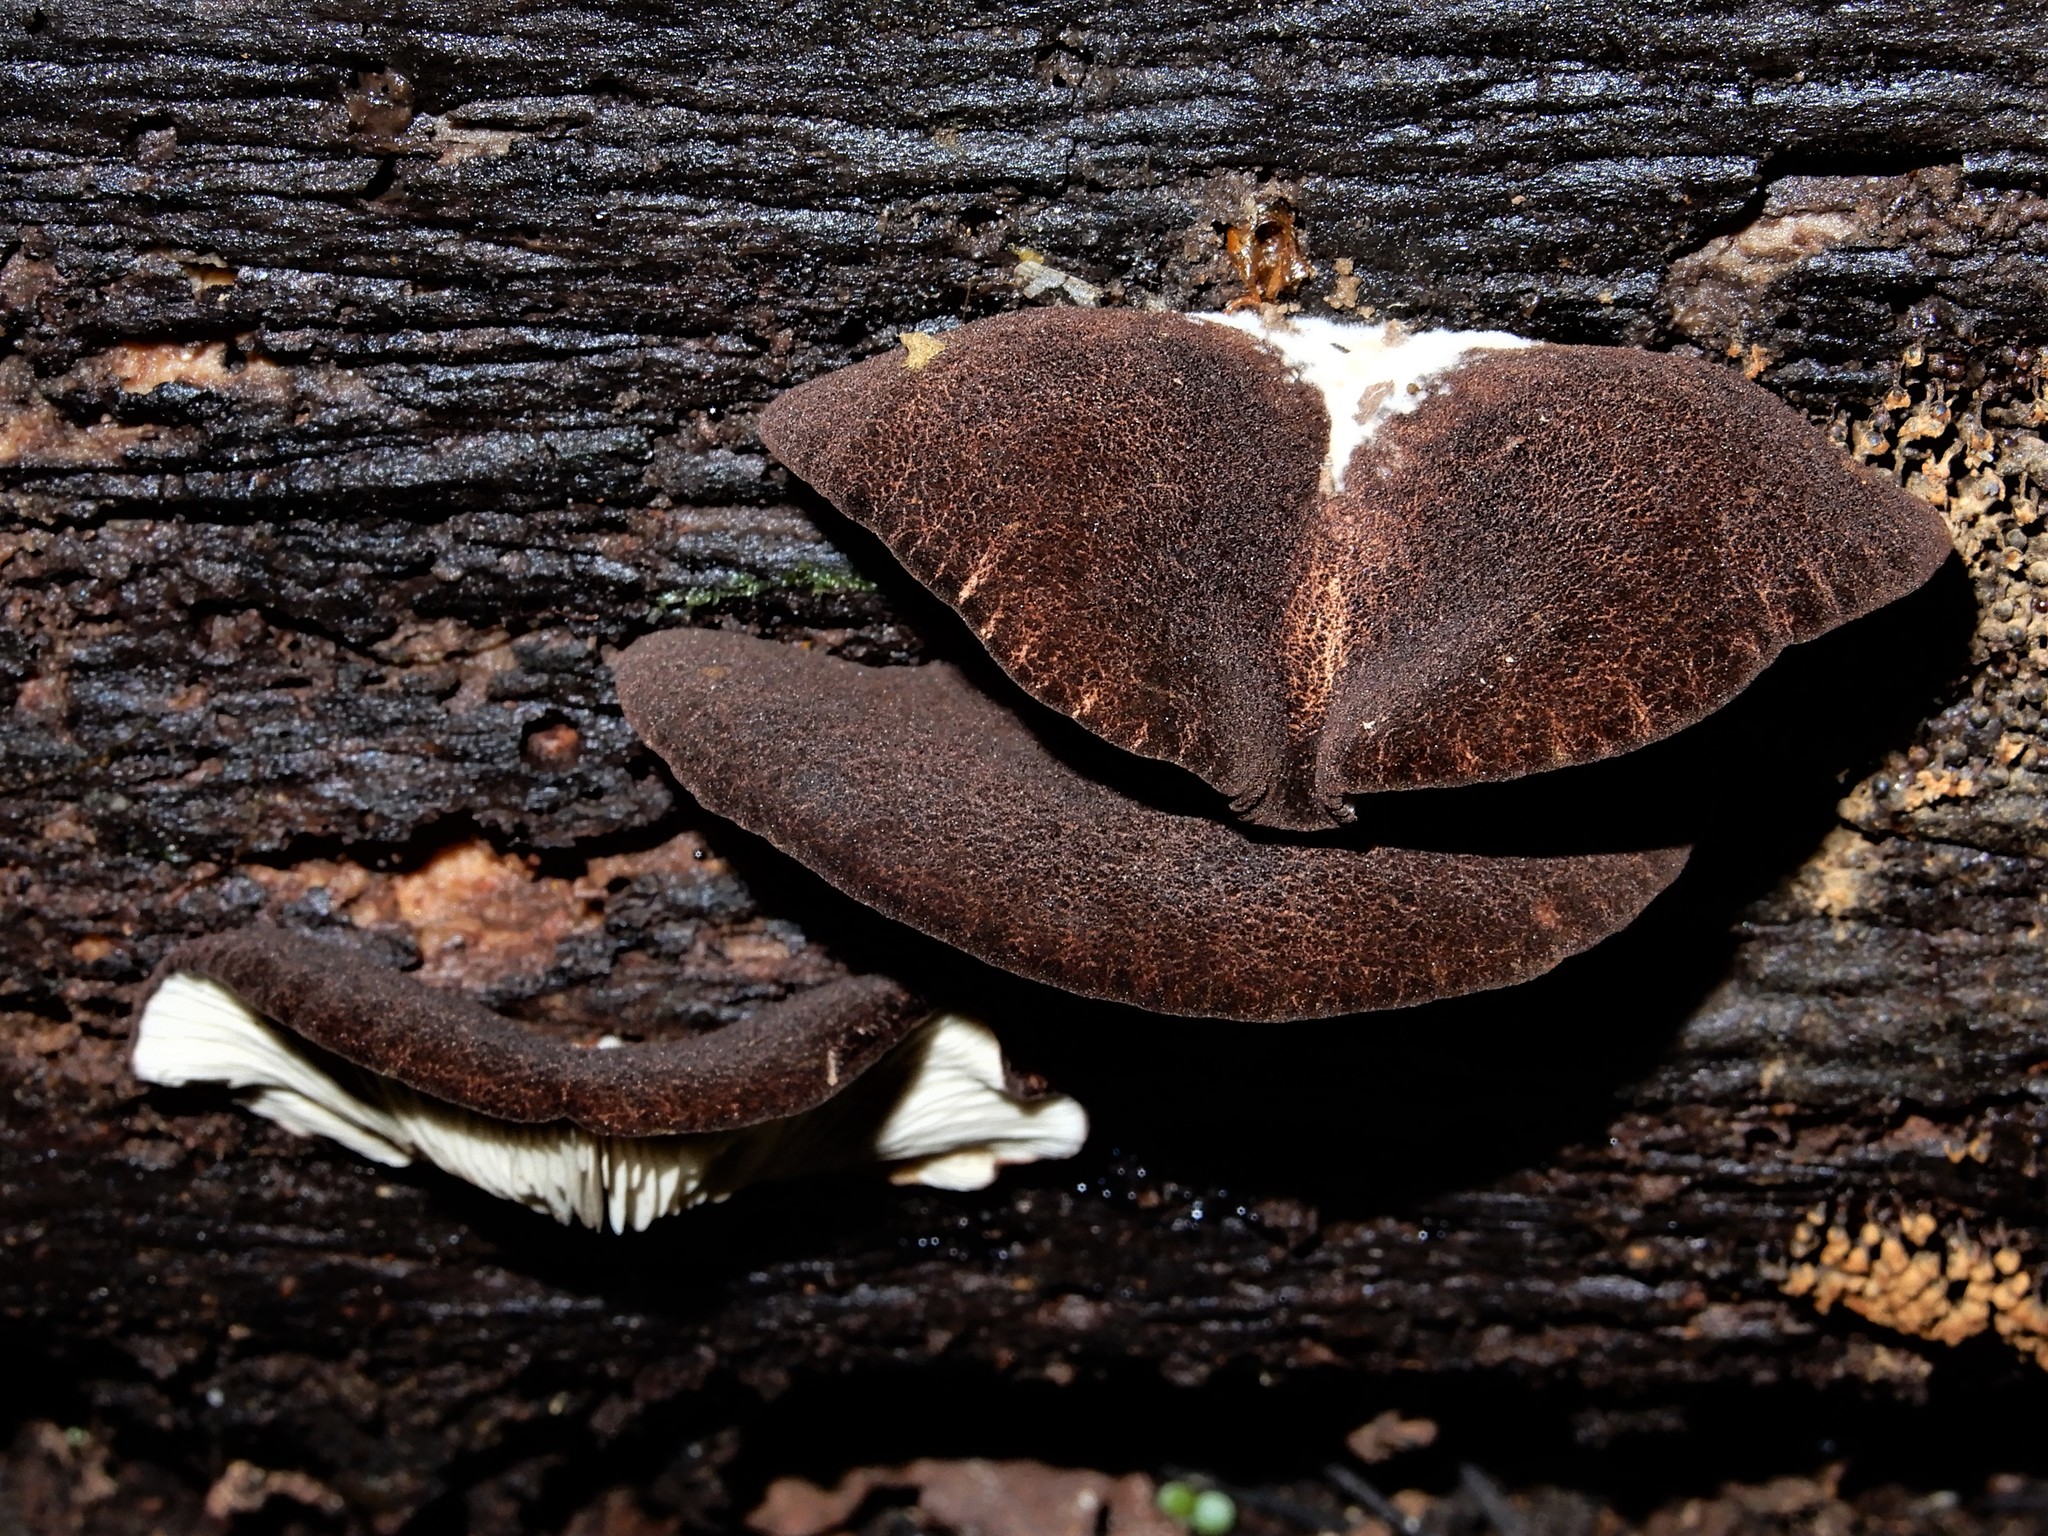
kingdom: Fungi
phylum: Basidiomycota
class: Agaricomycetes
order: Agaricales
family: Crepidotaceae
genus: Crepidotus
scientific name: Crepidotus fuscovelutinus
